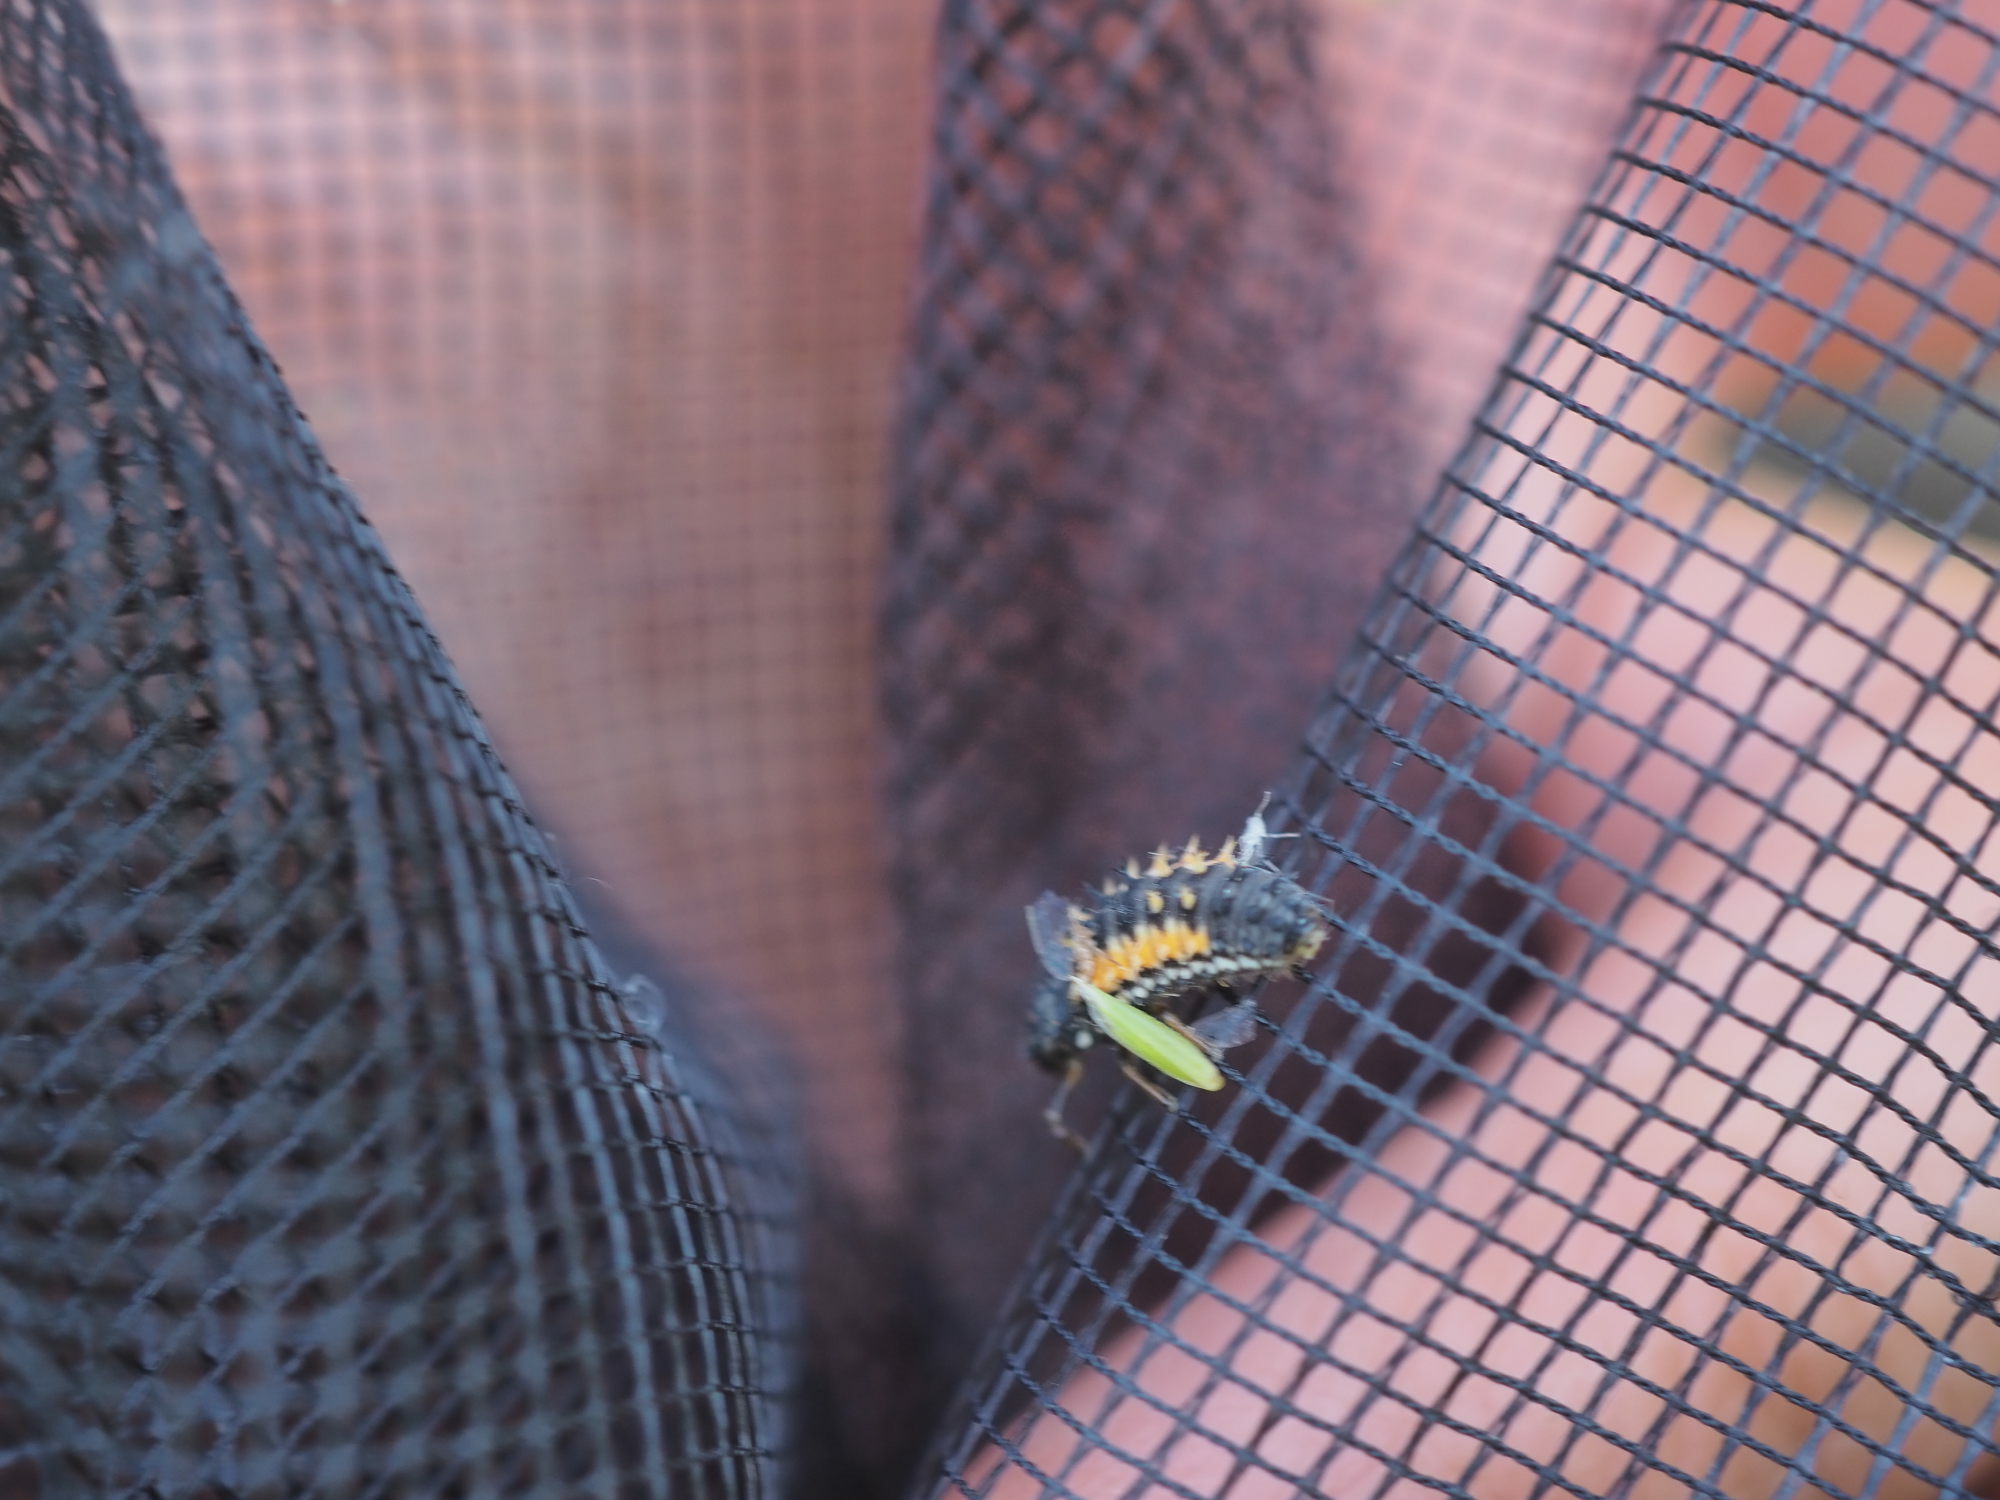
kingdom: Animalia
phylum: Arthropoda
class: Insecta
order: Coleoptera
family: Coccinellidae
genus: Harmonia
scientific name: Harmonia axyridis
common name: Harlequin ladybird
